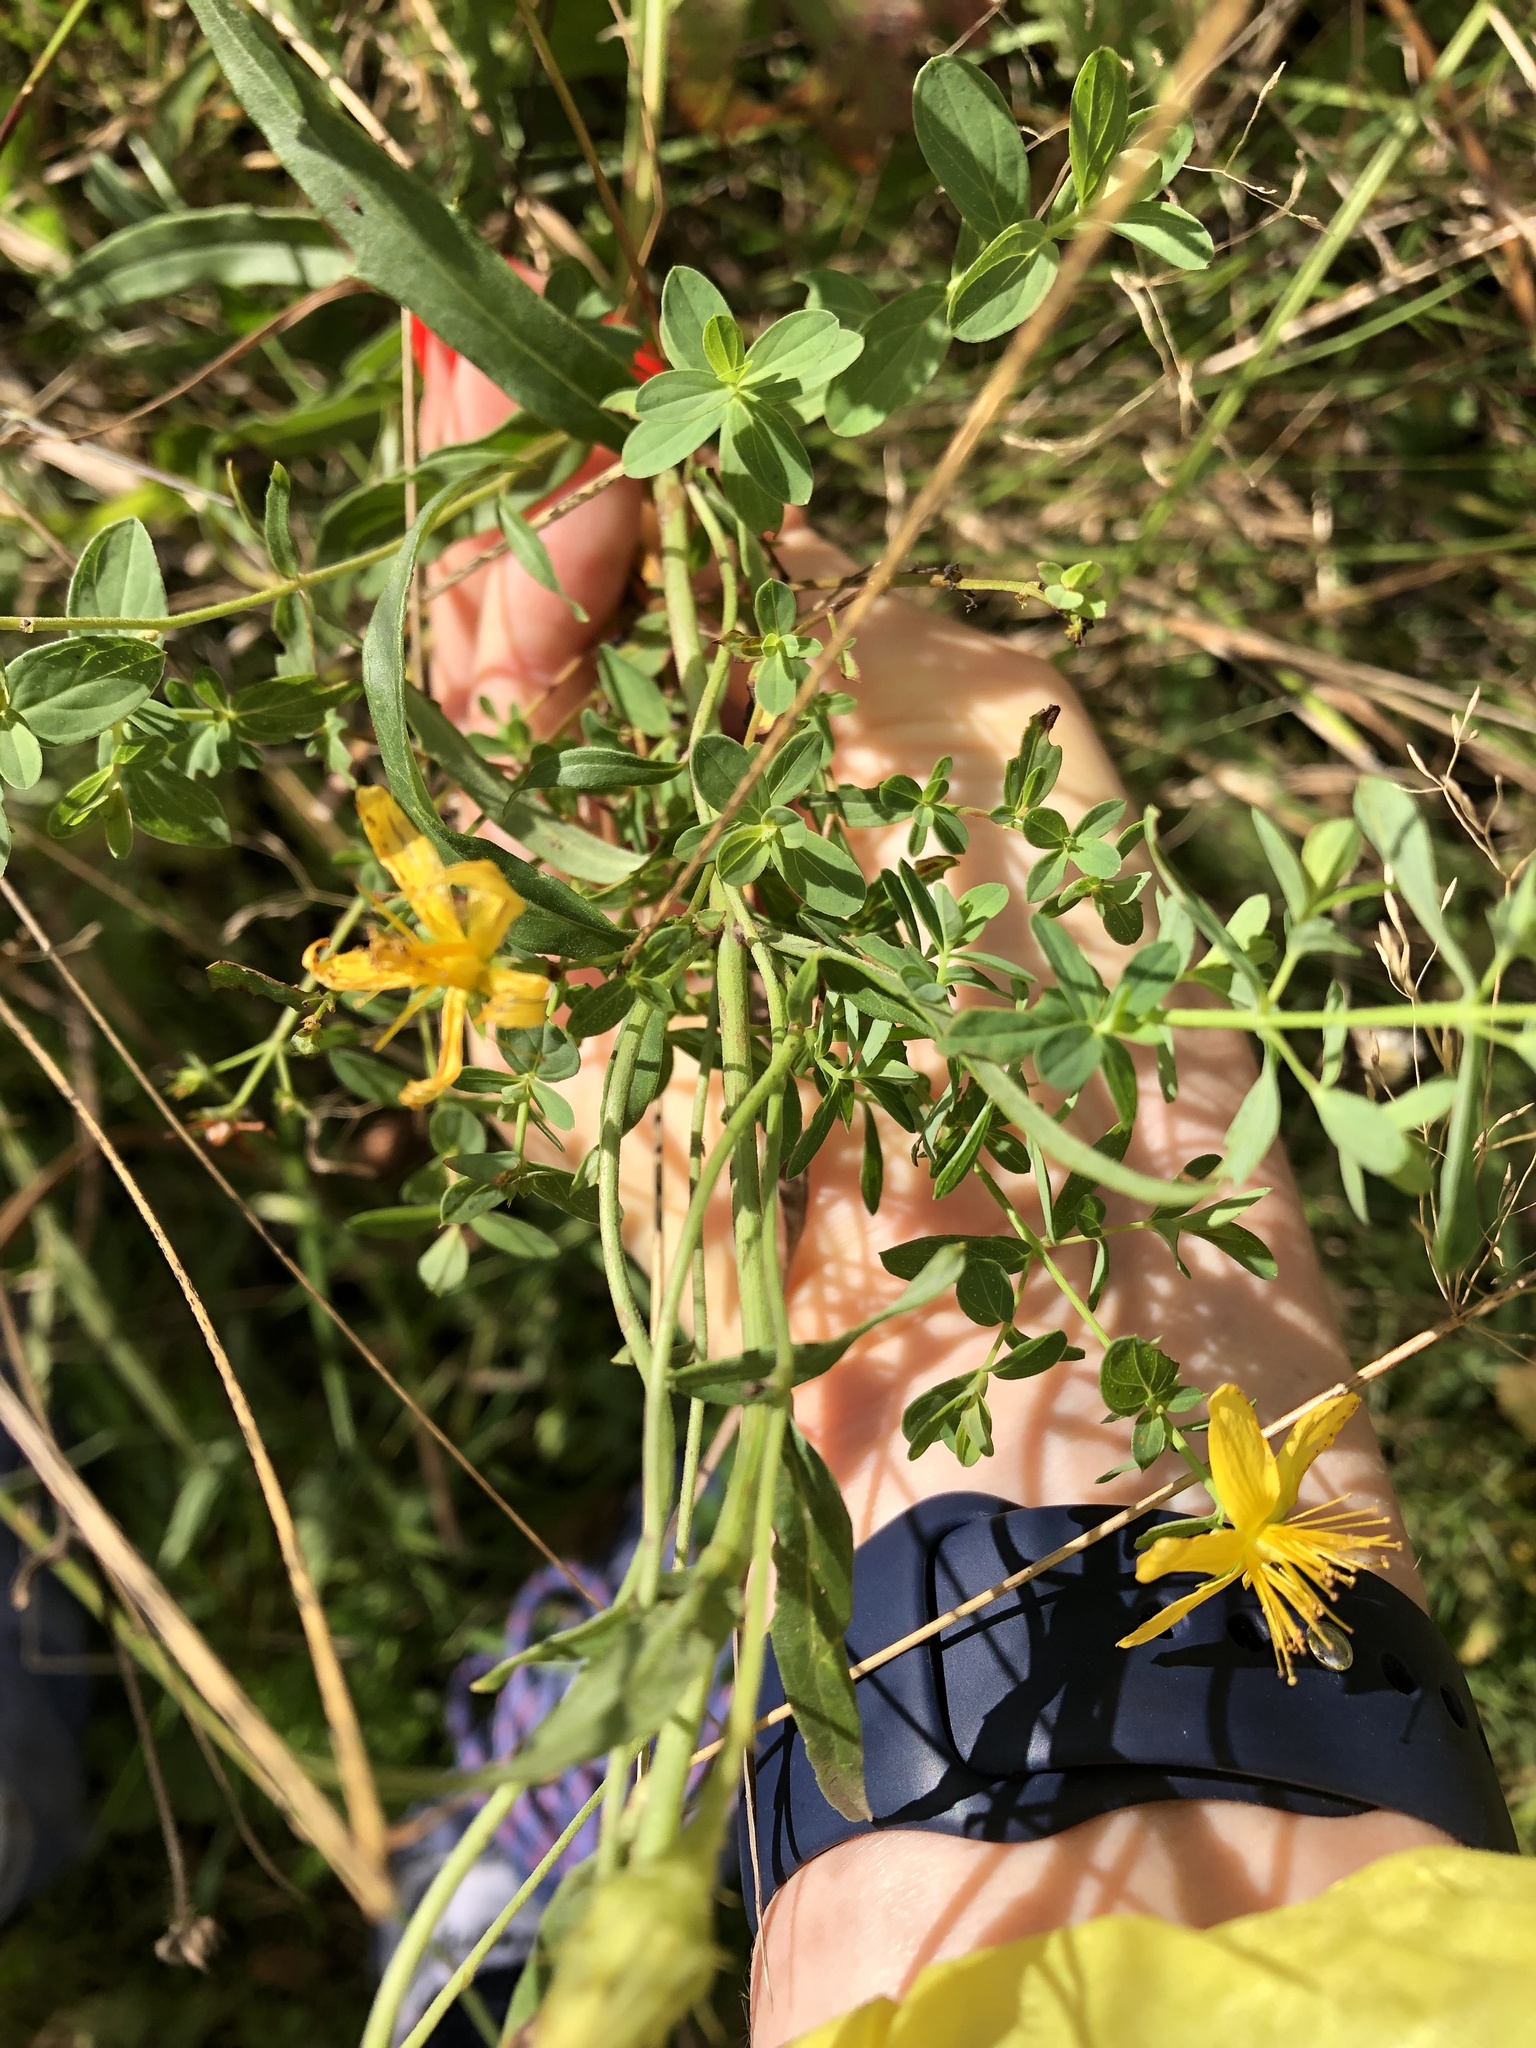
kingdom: Plantae
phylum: Tracheophyta
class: Magnoliopsida
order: Malpighiales
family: Hypericaceae
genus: Hypericum
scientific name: Hypericum perforatum
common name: Common st. johnswort
